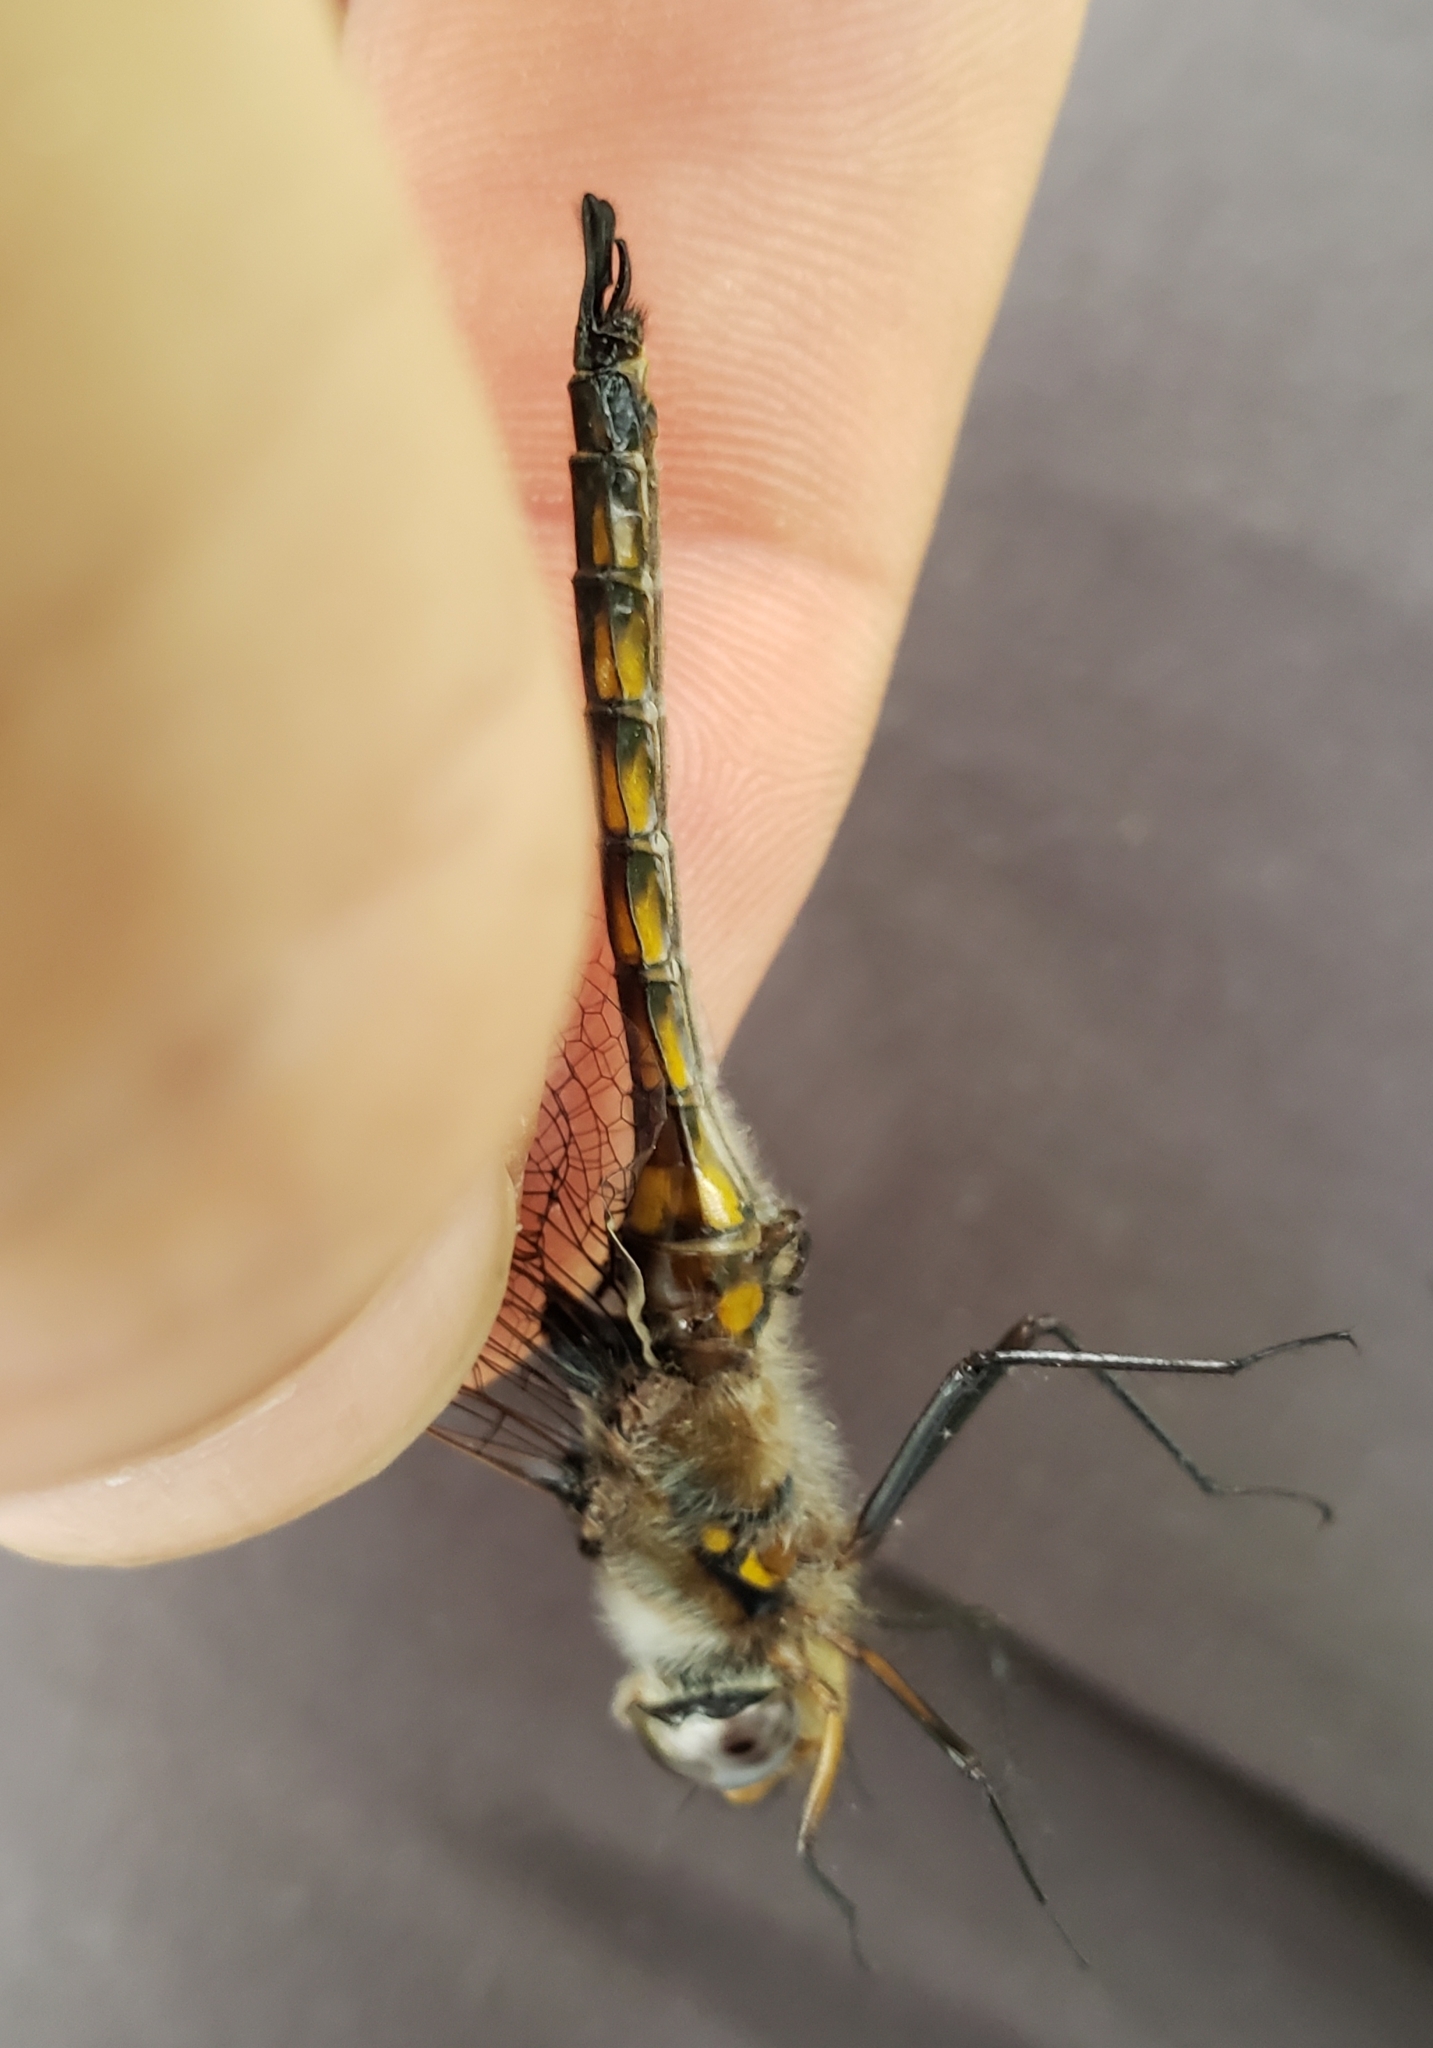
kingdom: Animalia
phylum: Arthropoda
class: Insecta
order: Odonata
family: Corduliidae
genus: Epitheca
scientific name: Epitheca cynosura
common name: Common baskettail
